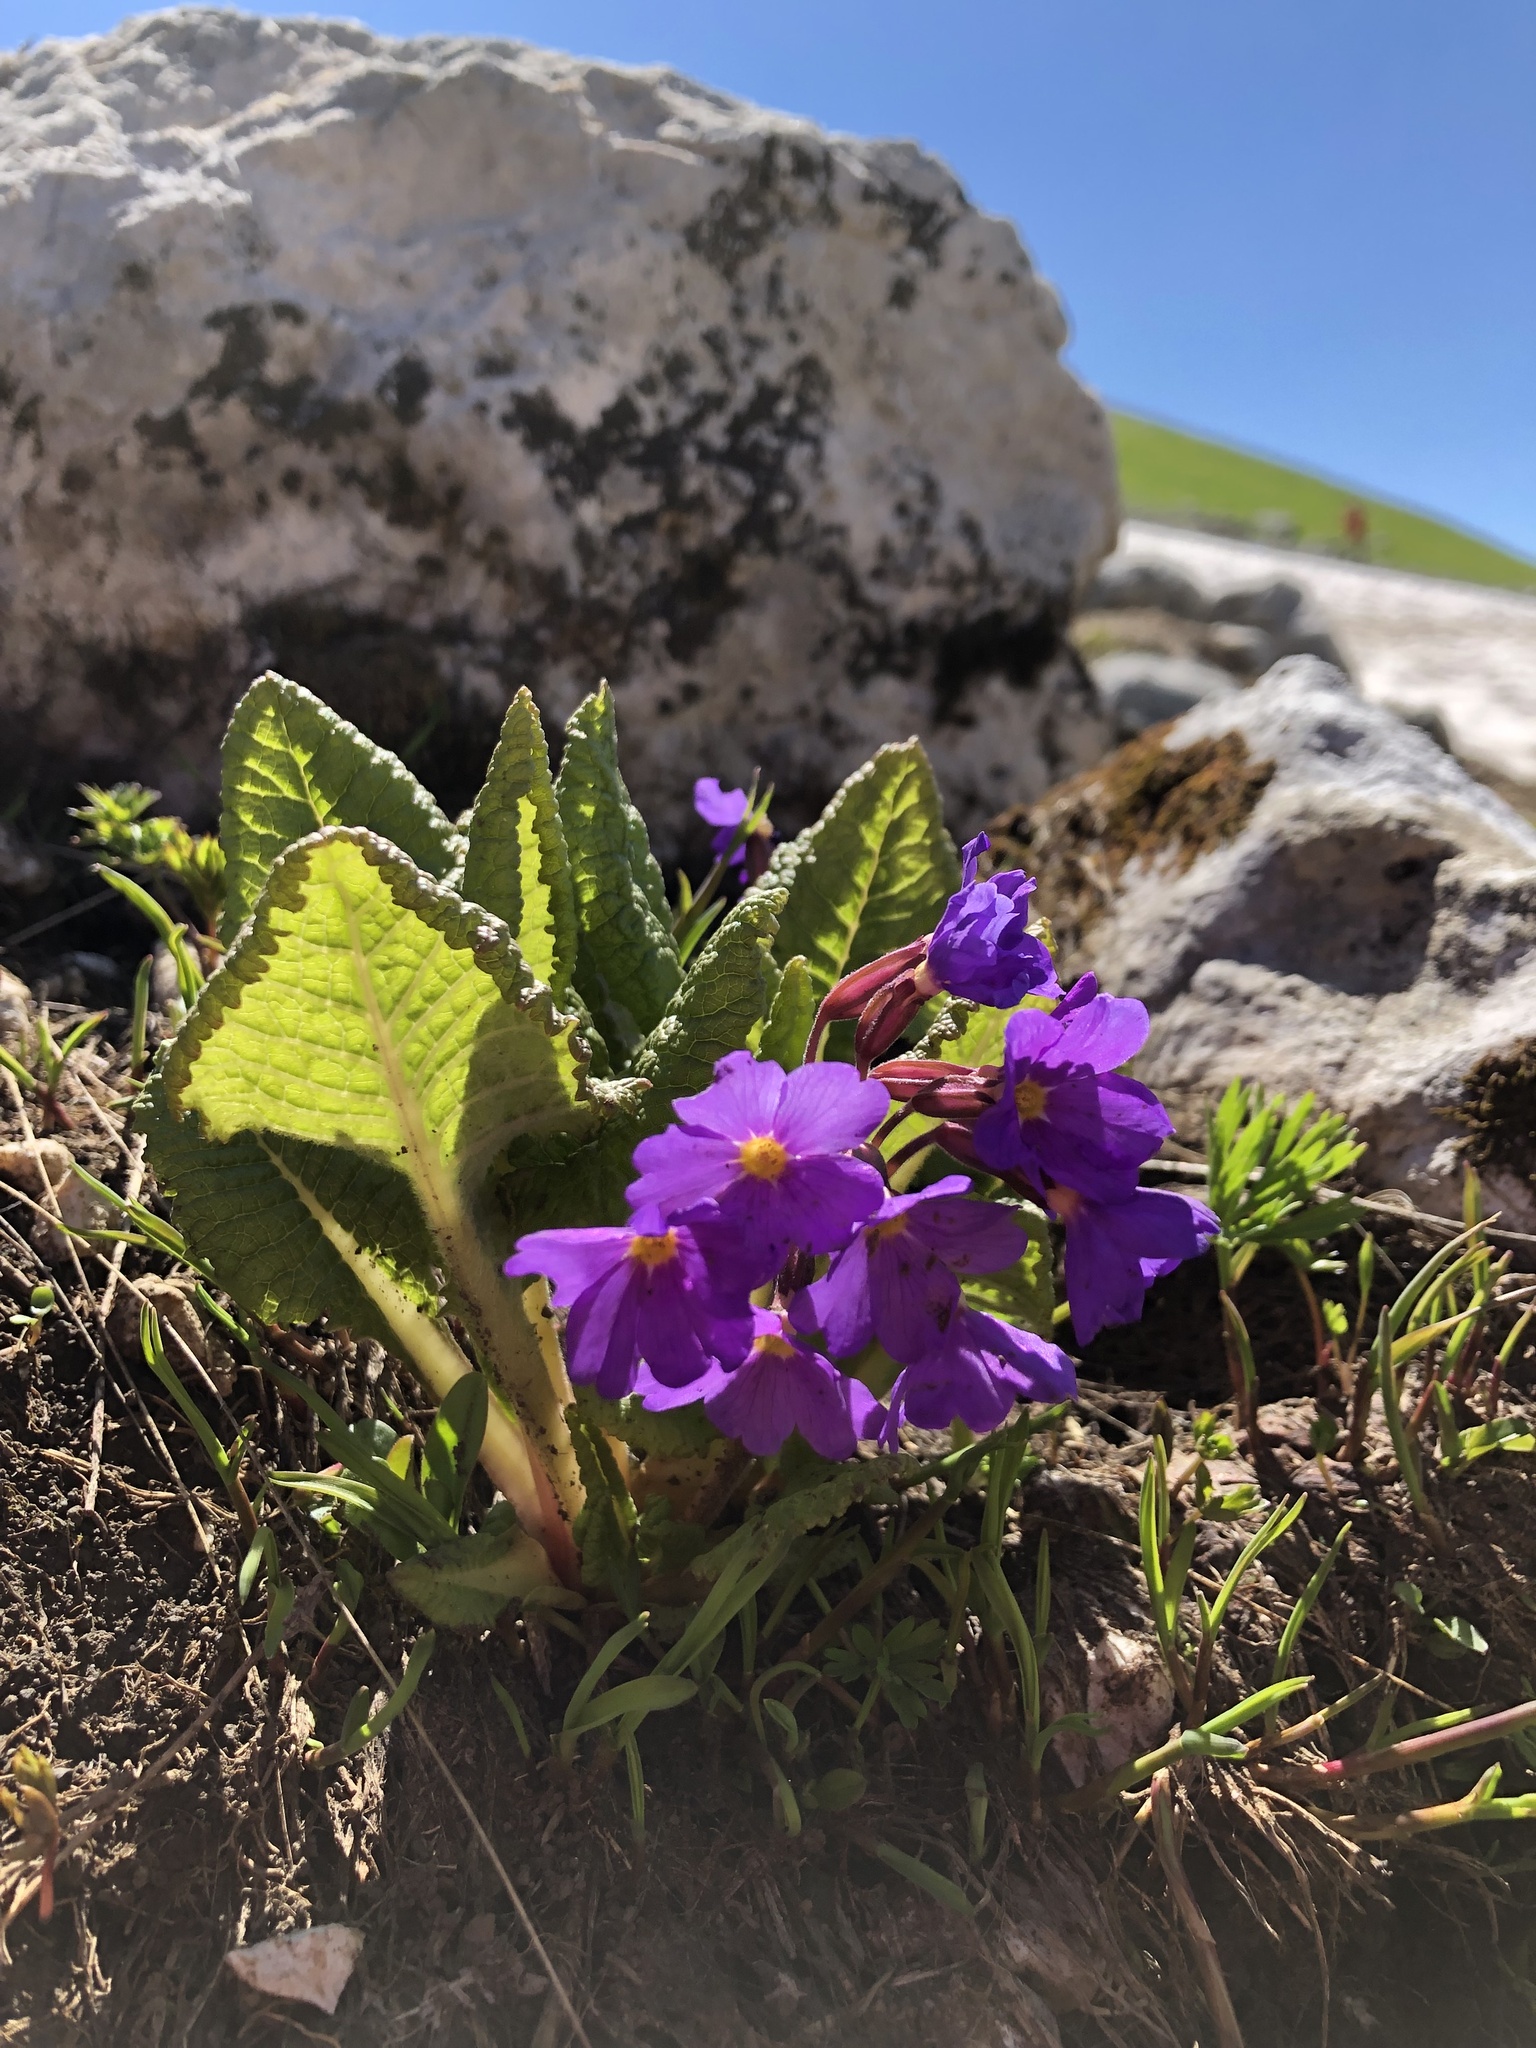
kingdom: Plantae
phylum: Tracheophyta
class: Magnoliopsida
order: Ericales
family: Primulaceae
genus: Primula
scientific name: Primula amoena
